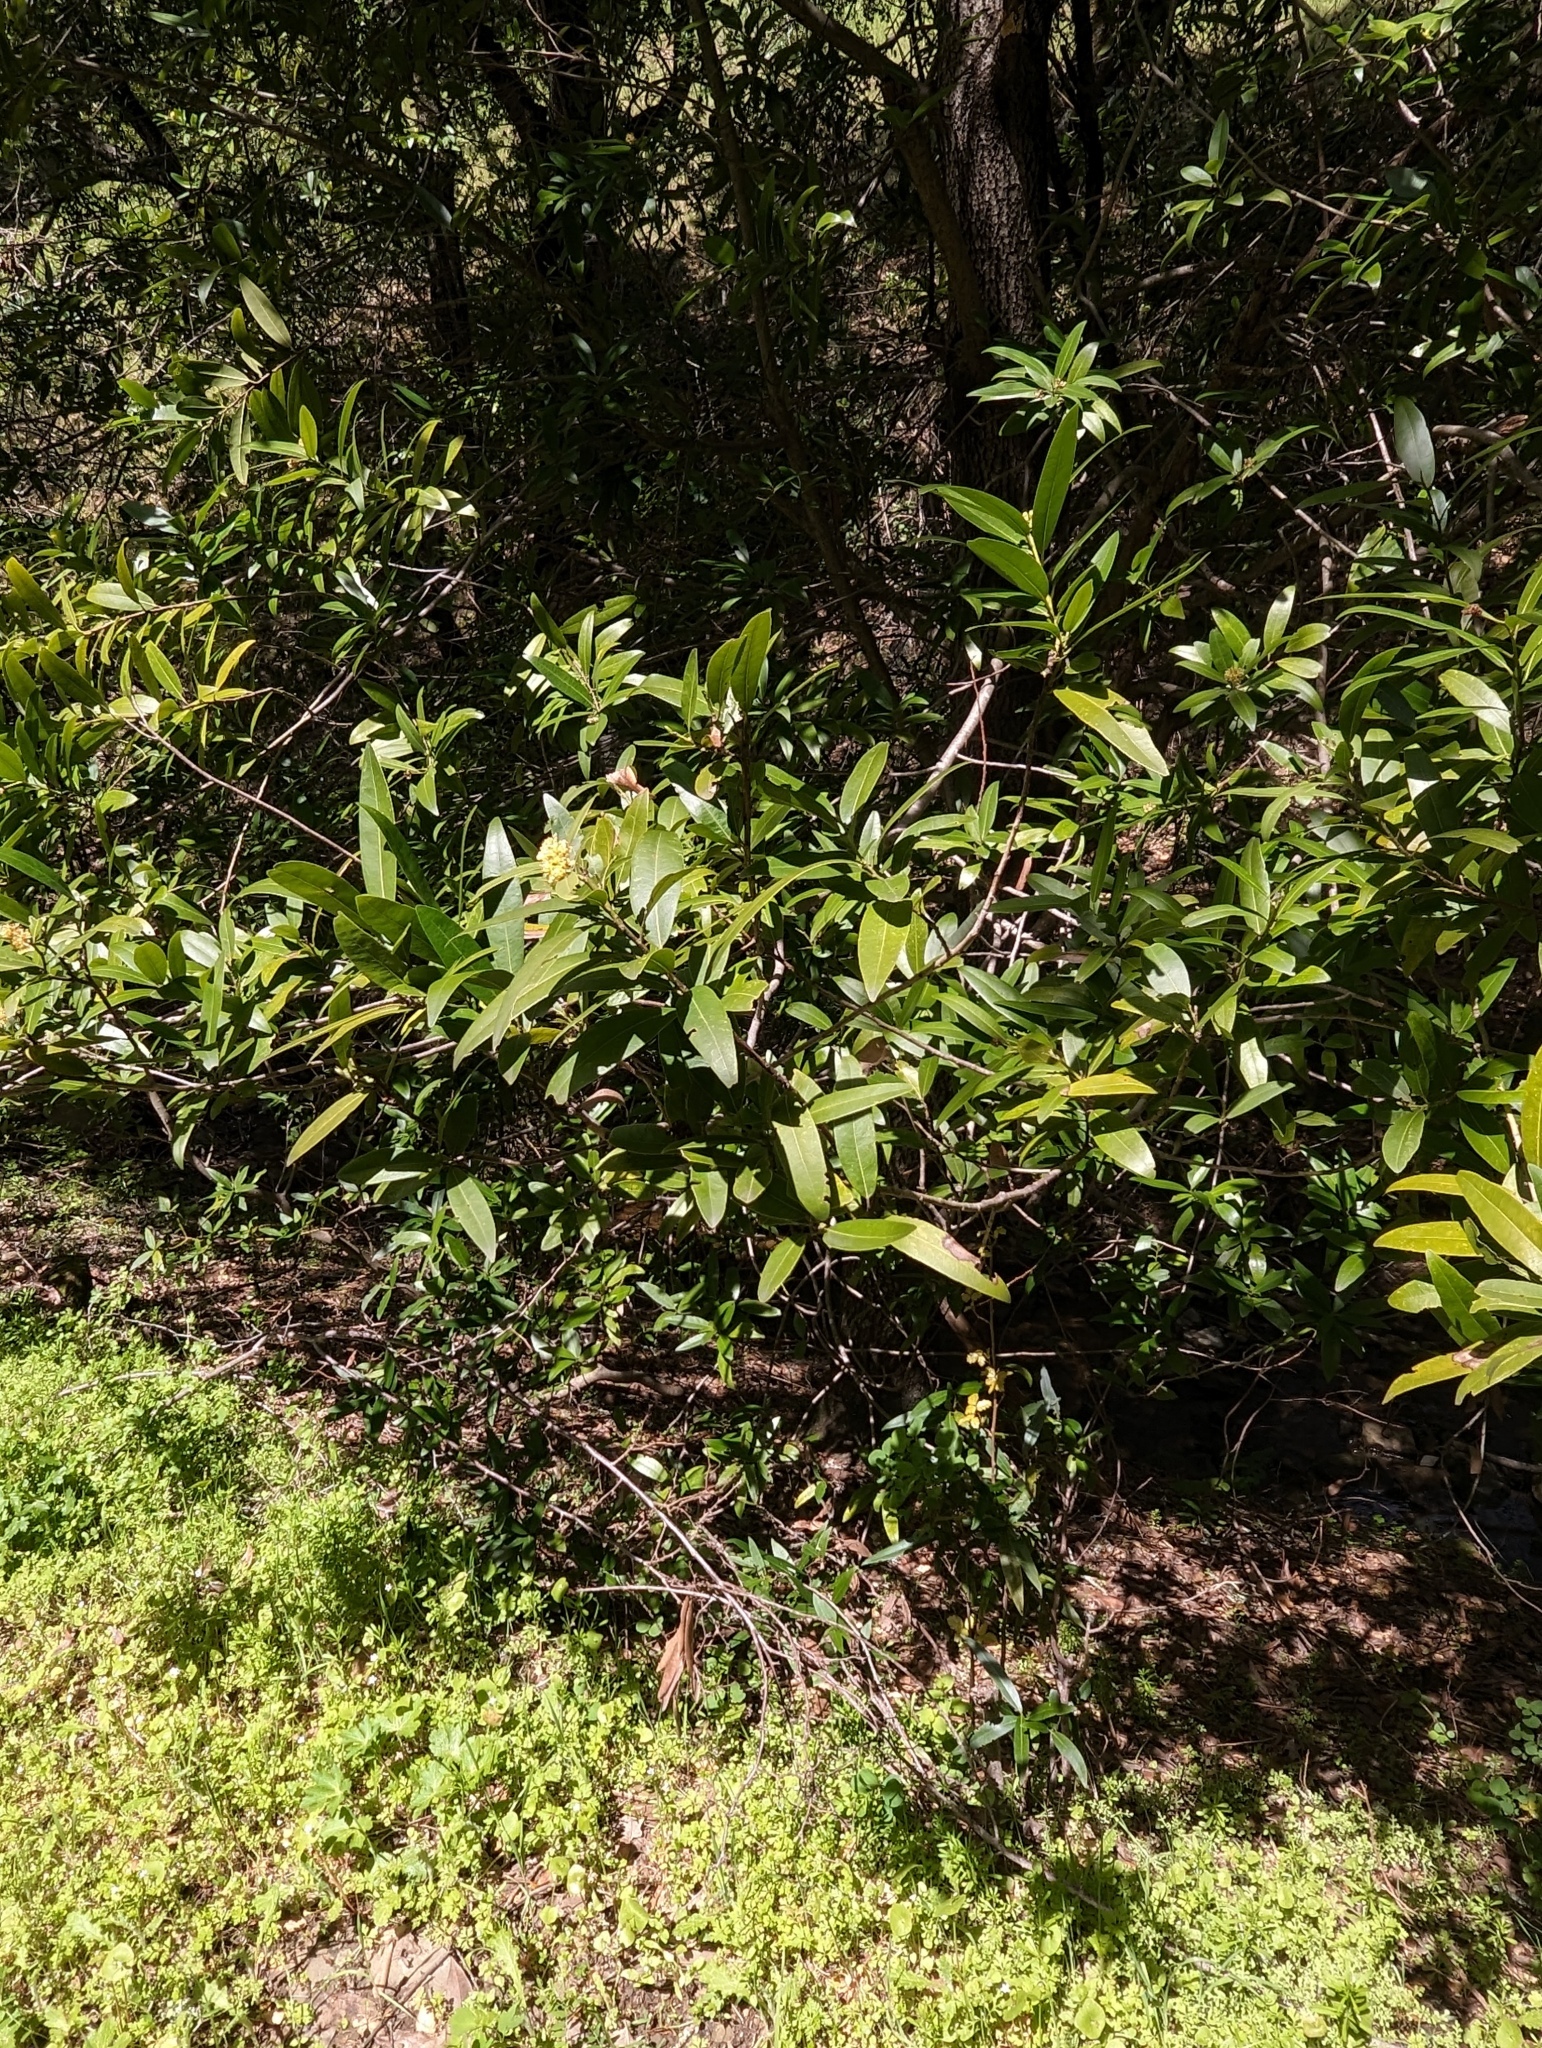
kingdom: Plantae
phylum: Tracheophyta
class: Magnoliopsida
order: Laurales
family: Lauraceae
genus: Umbellularia
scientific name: Umbellularia californica
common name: California bay
